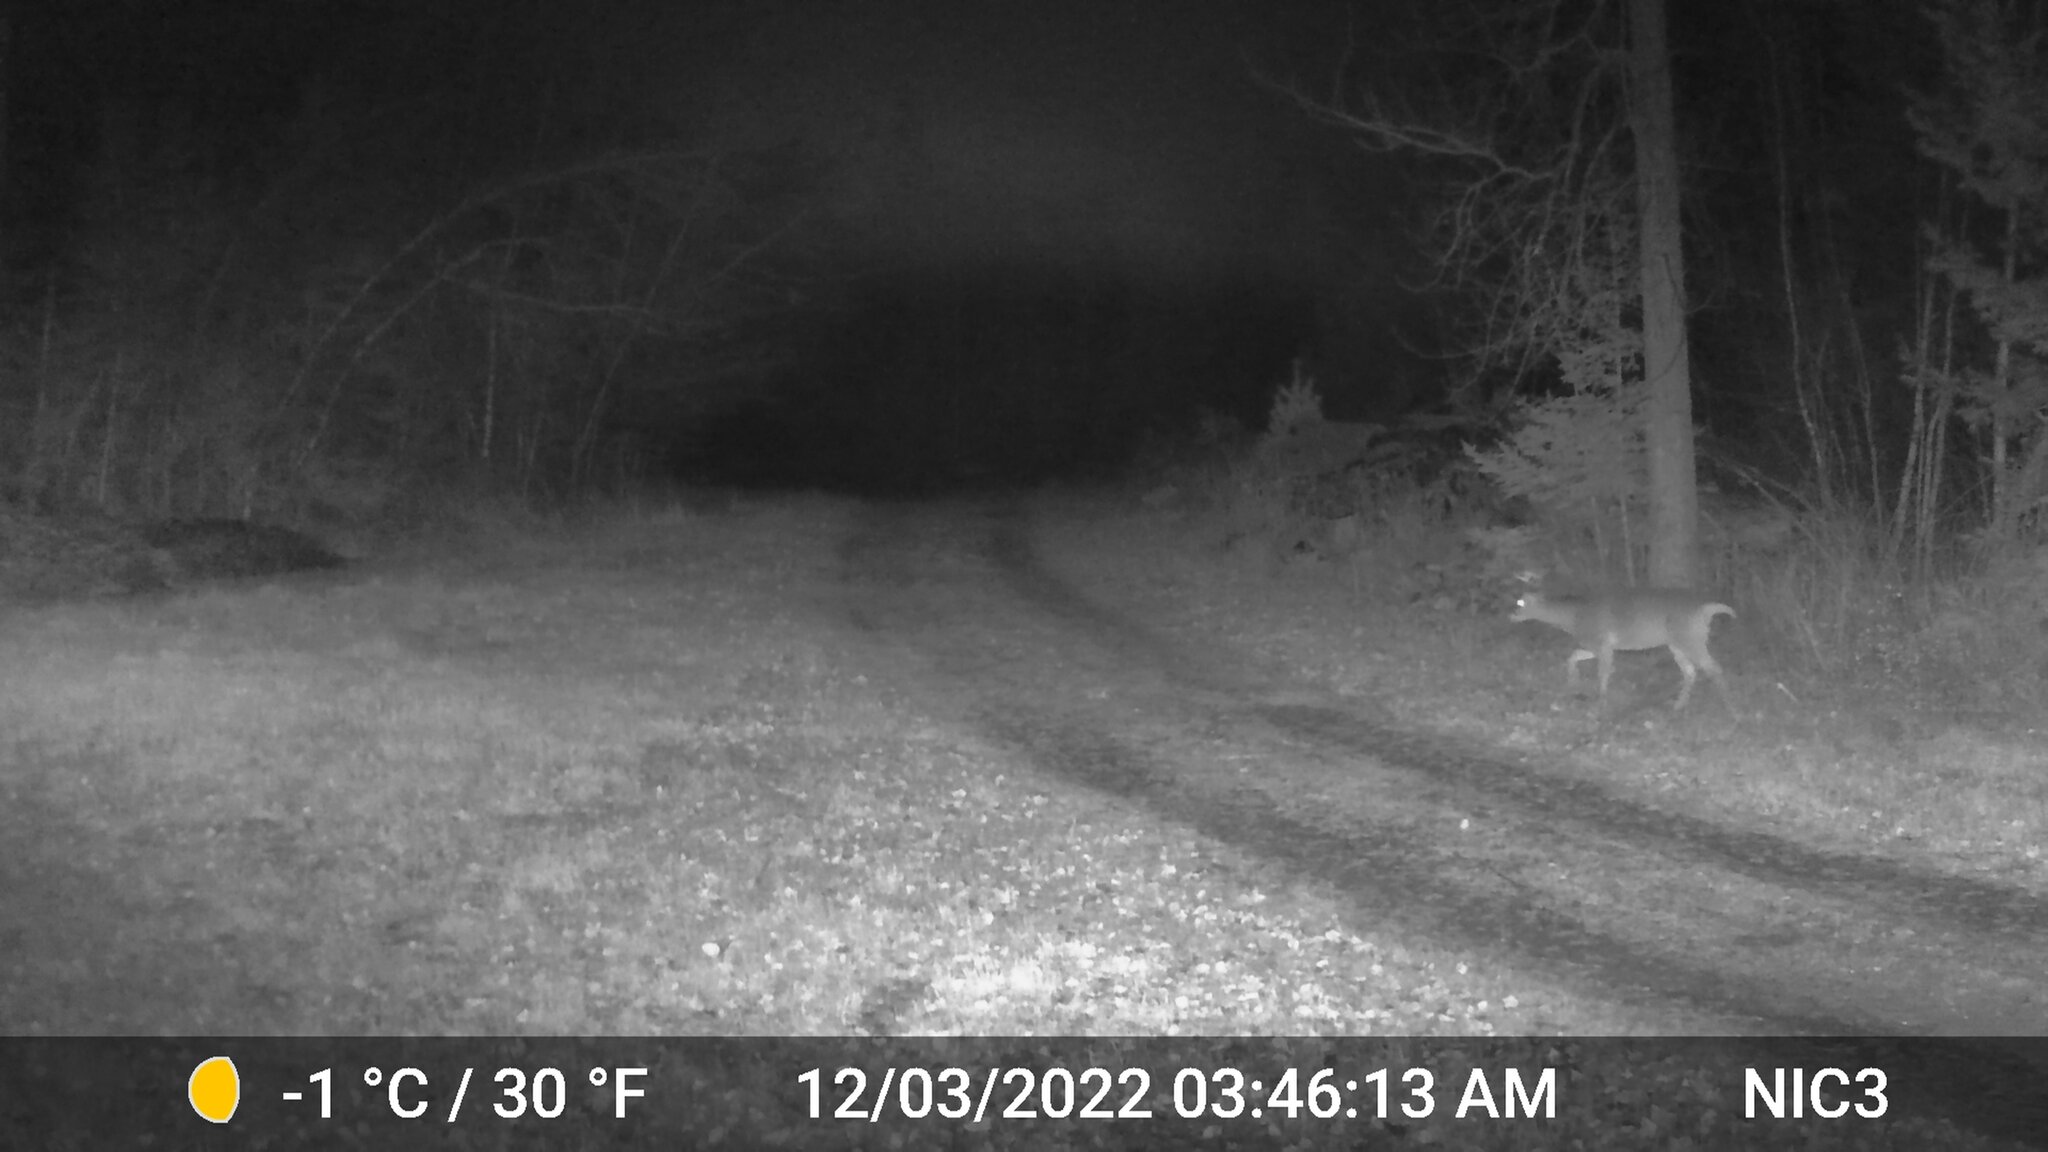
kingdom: Animalia
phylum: Chordata
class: Mammalia
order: Artiodactyla
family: Cervidae
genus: Odocoileus
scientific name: Odocoileus virginianus
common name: White-tailed deer
